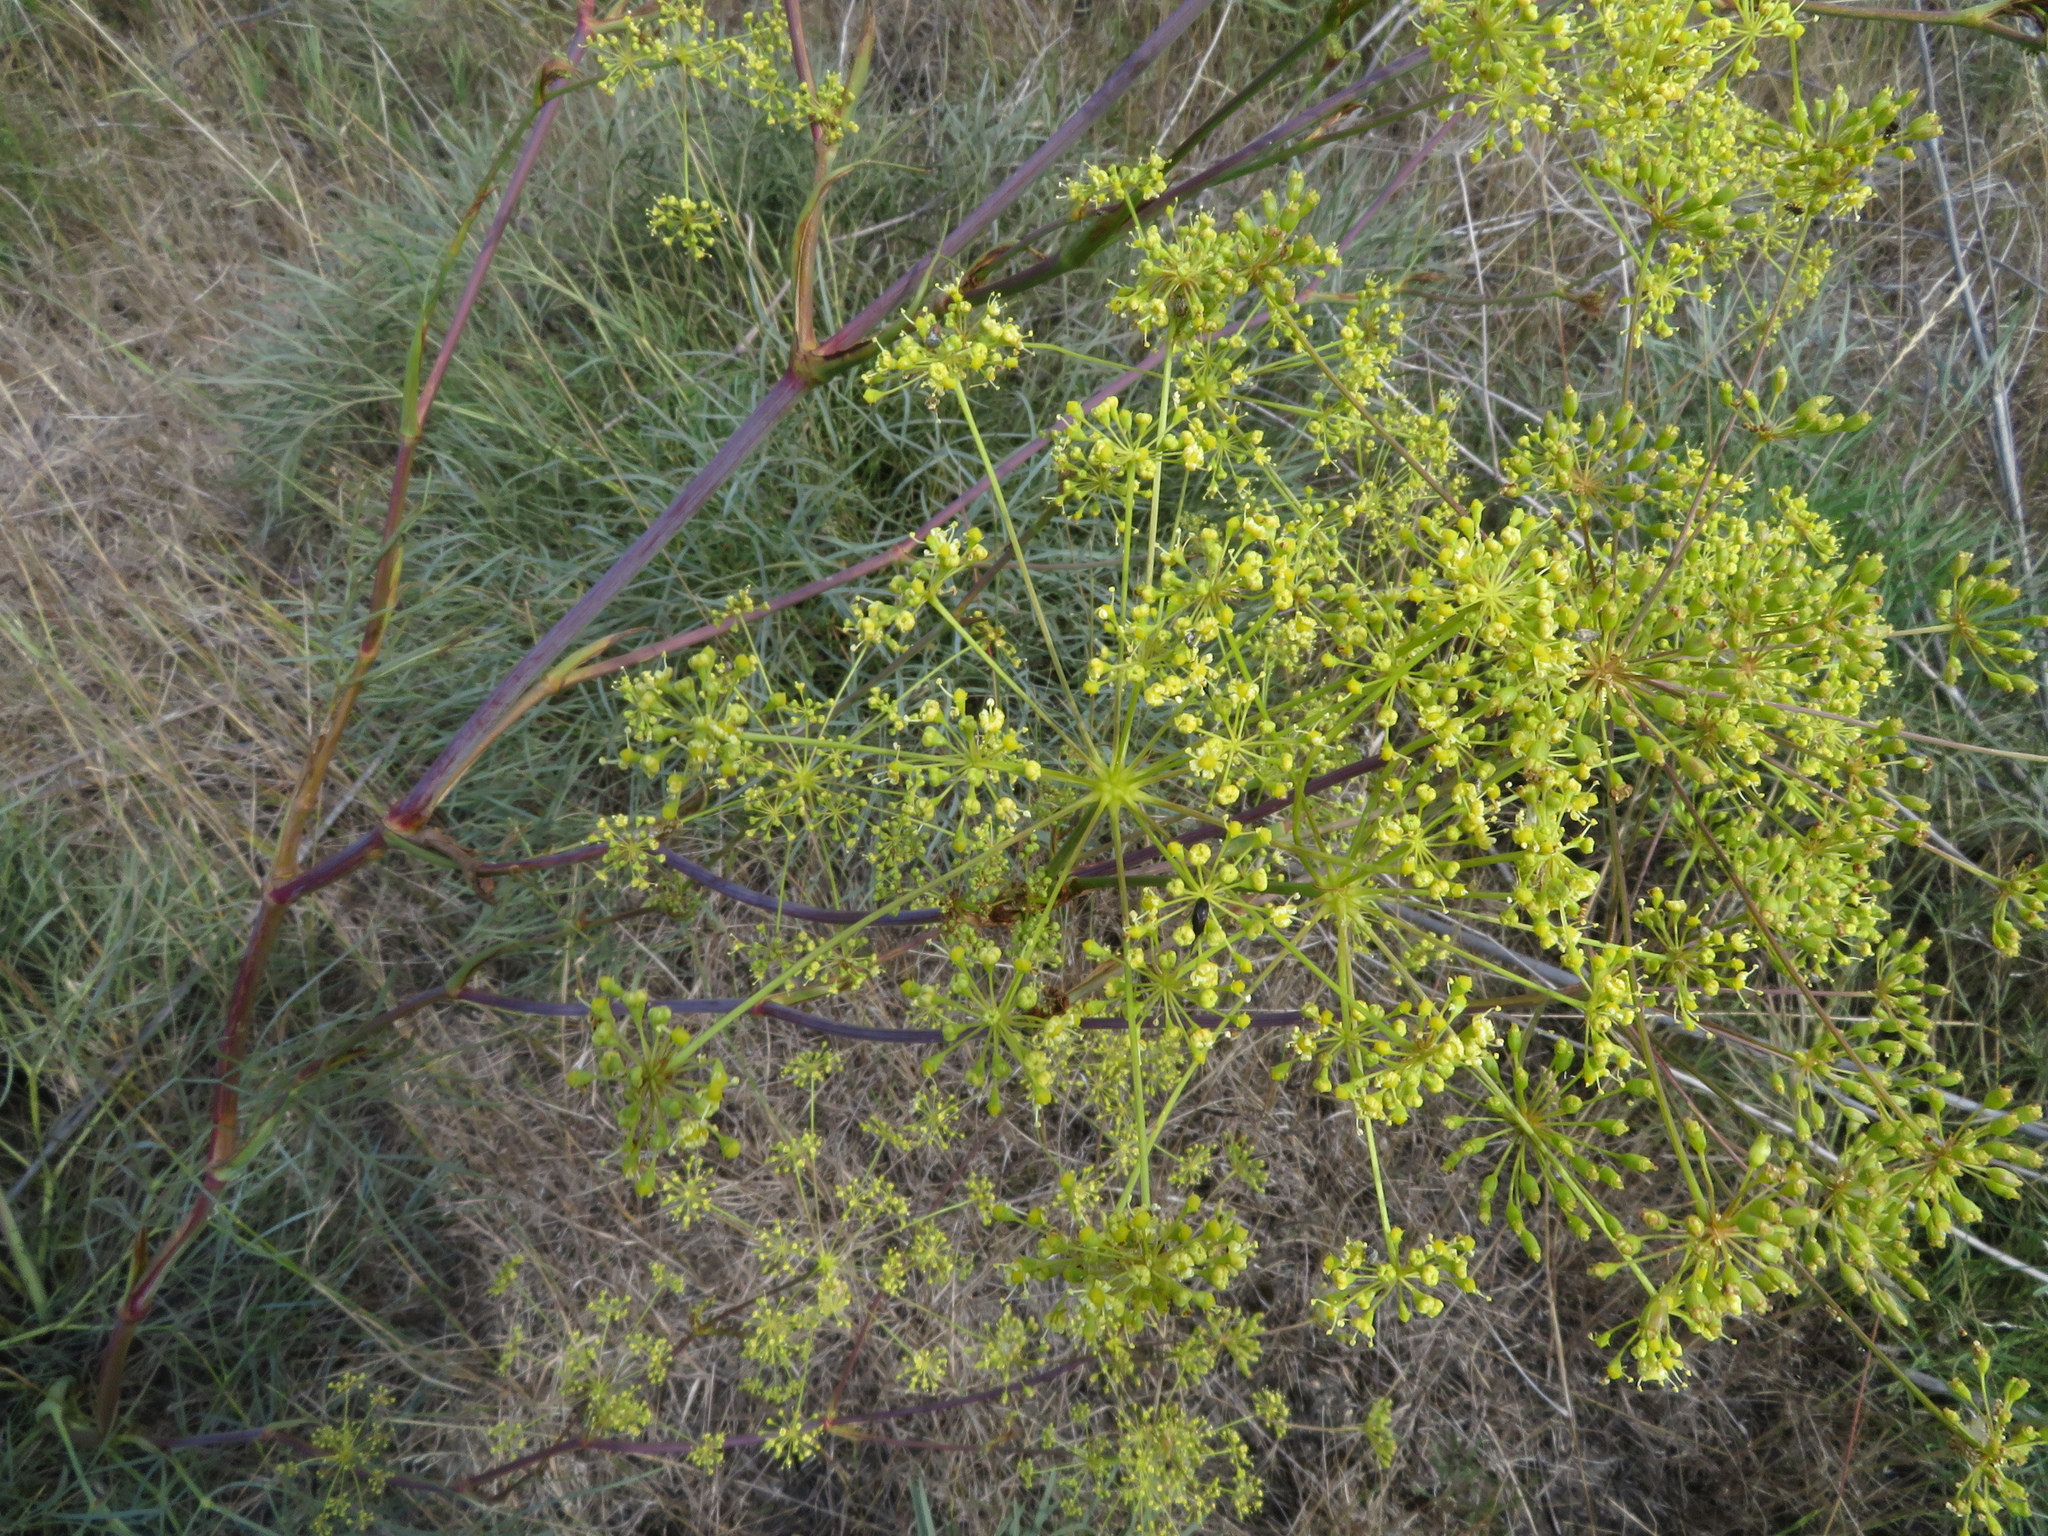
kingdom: Plantae
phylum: Tracheophyta
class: Magnoliopsida
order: Apiales
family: Apiaceae
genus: Peucedanum
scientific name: Peucedanum officinale
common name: Sulphurweed
